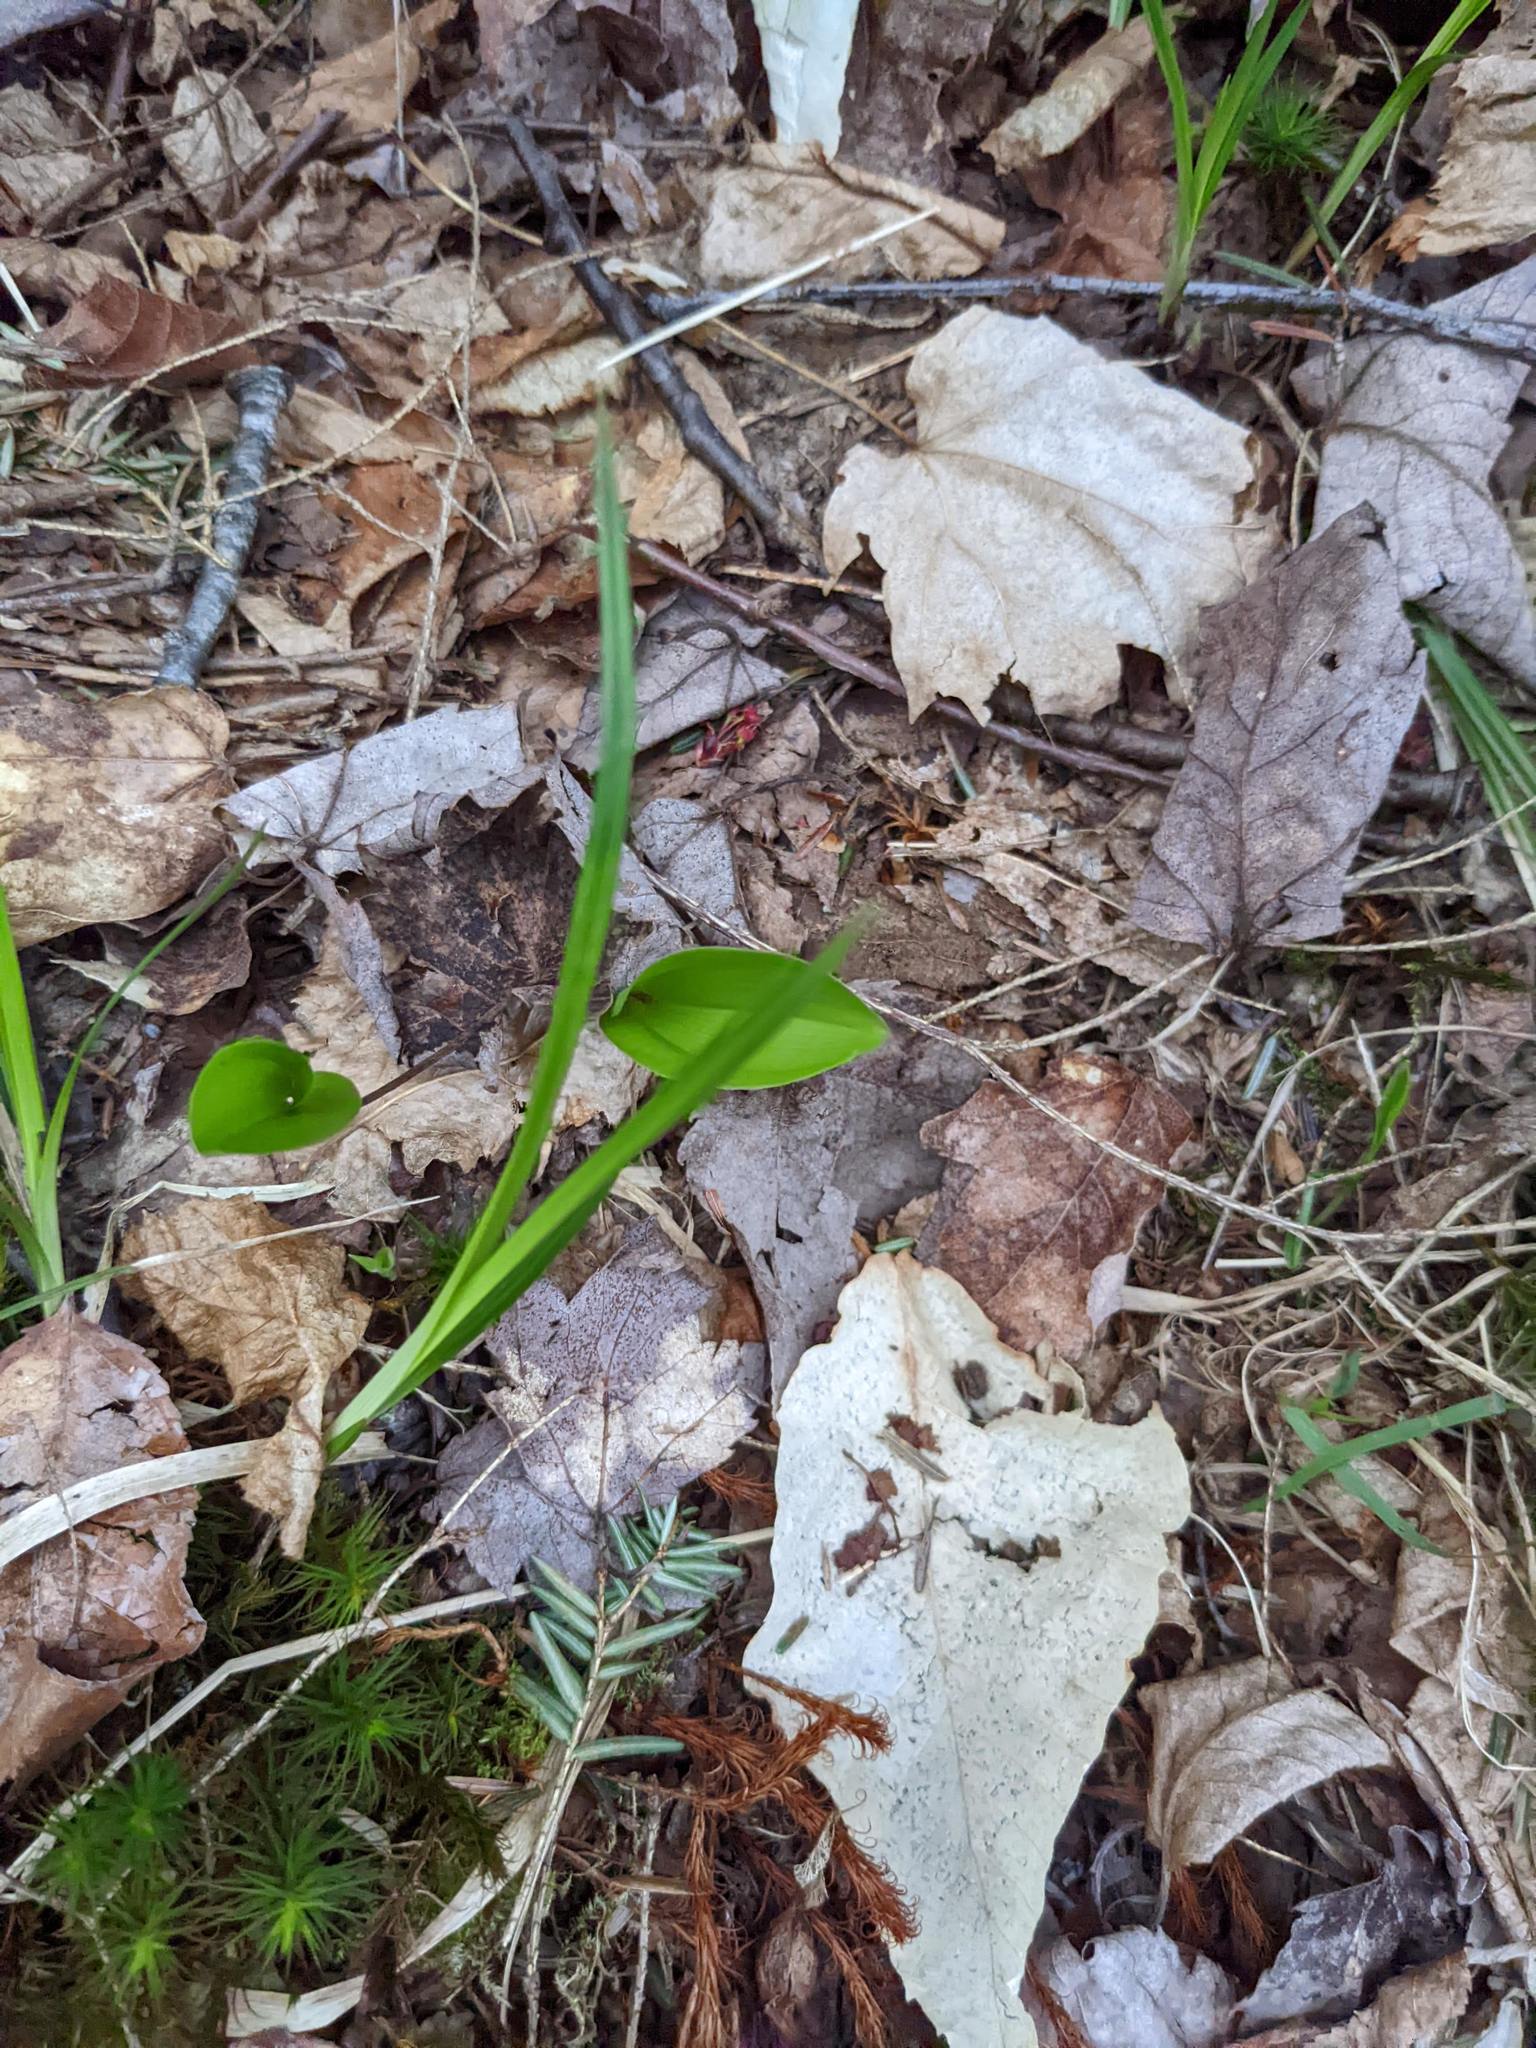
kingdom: Plantae
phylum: Tracheophyta
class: Liliopsida
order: Asparagales
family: Asparagaceae
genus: Maianthemum
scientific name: Maianthemum canadense
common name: False lily-of-the-valley
